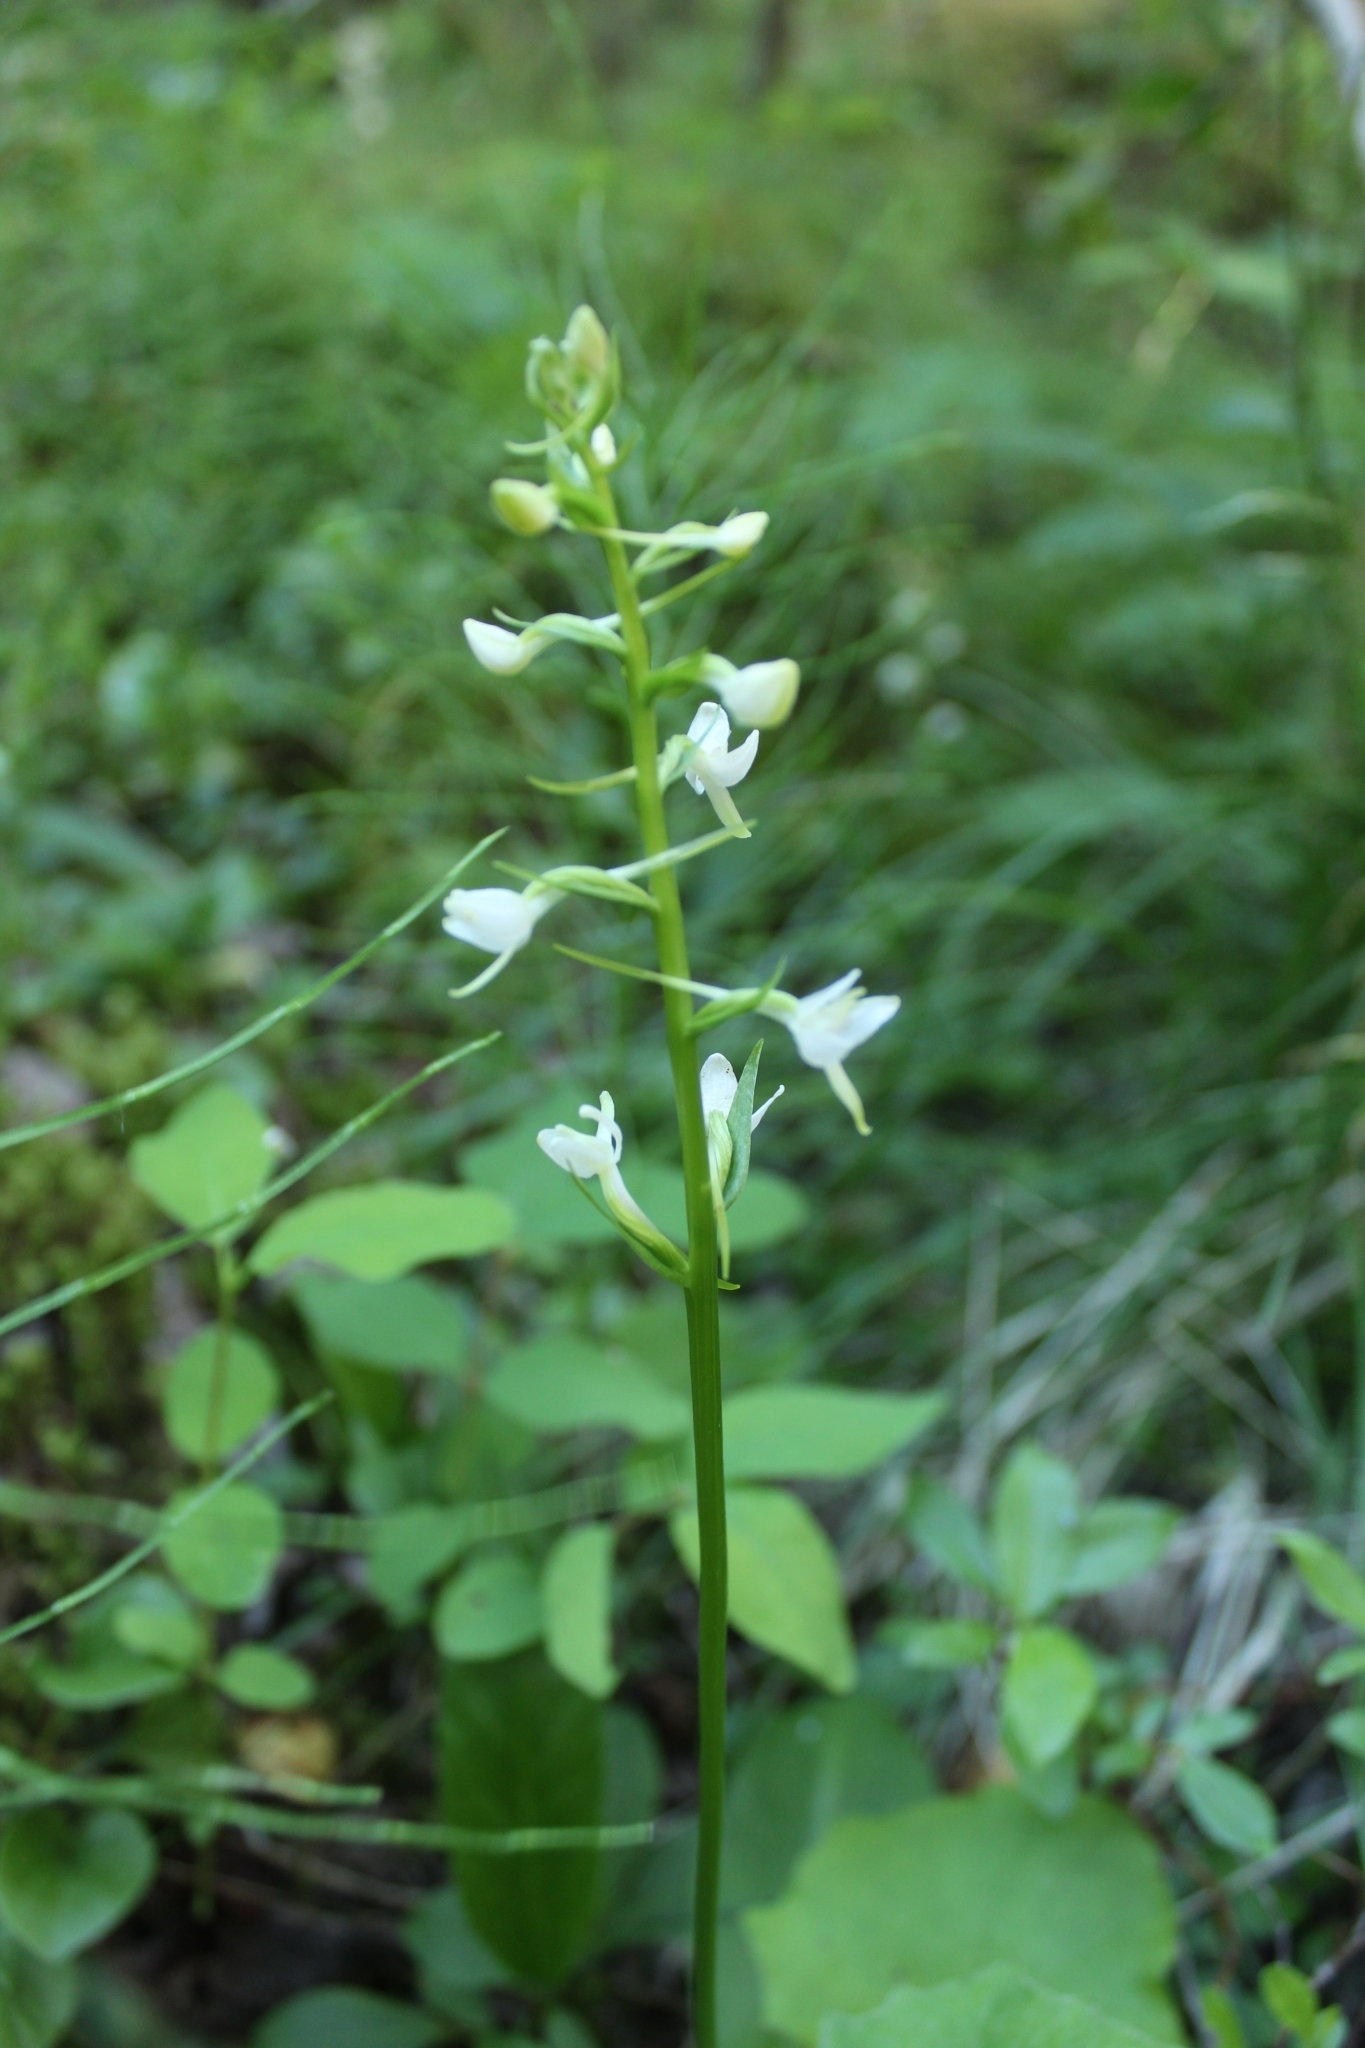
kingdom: Plantae
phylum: Tracheophyta
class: Liliopsida
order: Asparagales
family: Orchidaceae
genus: Platanthera
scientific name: Platanthera bifolia
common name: Lesser butterfly-orchid
